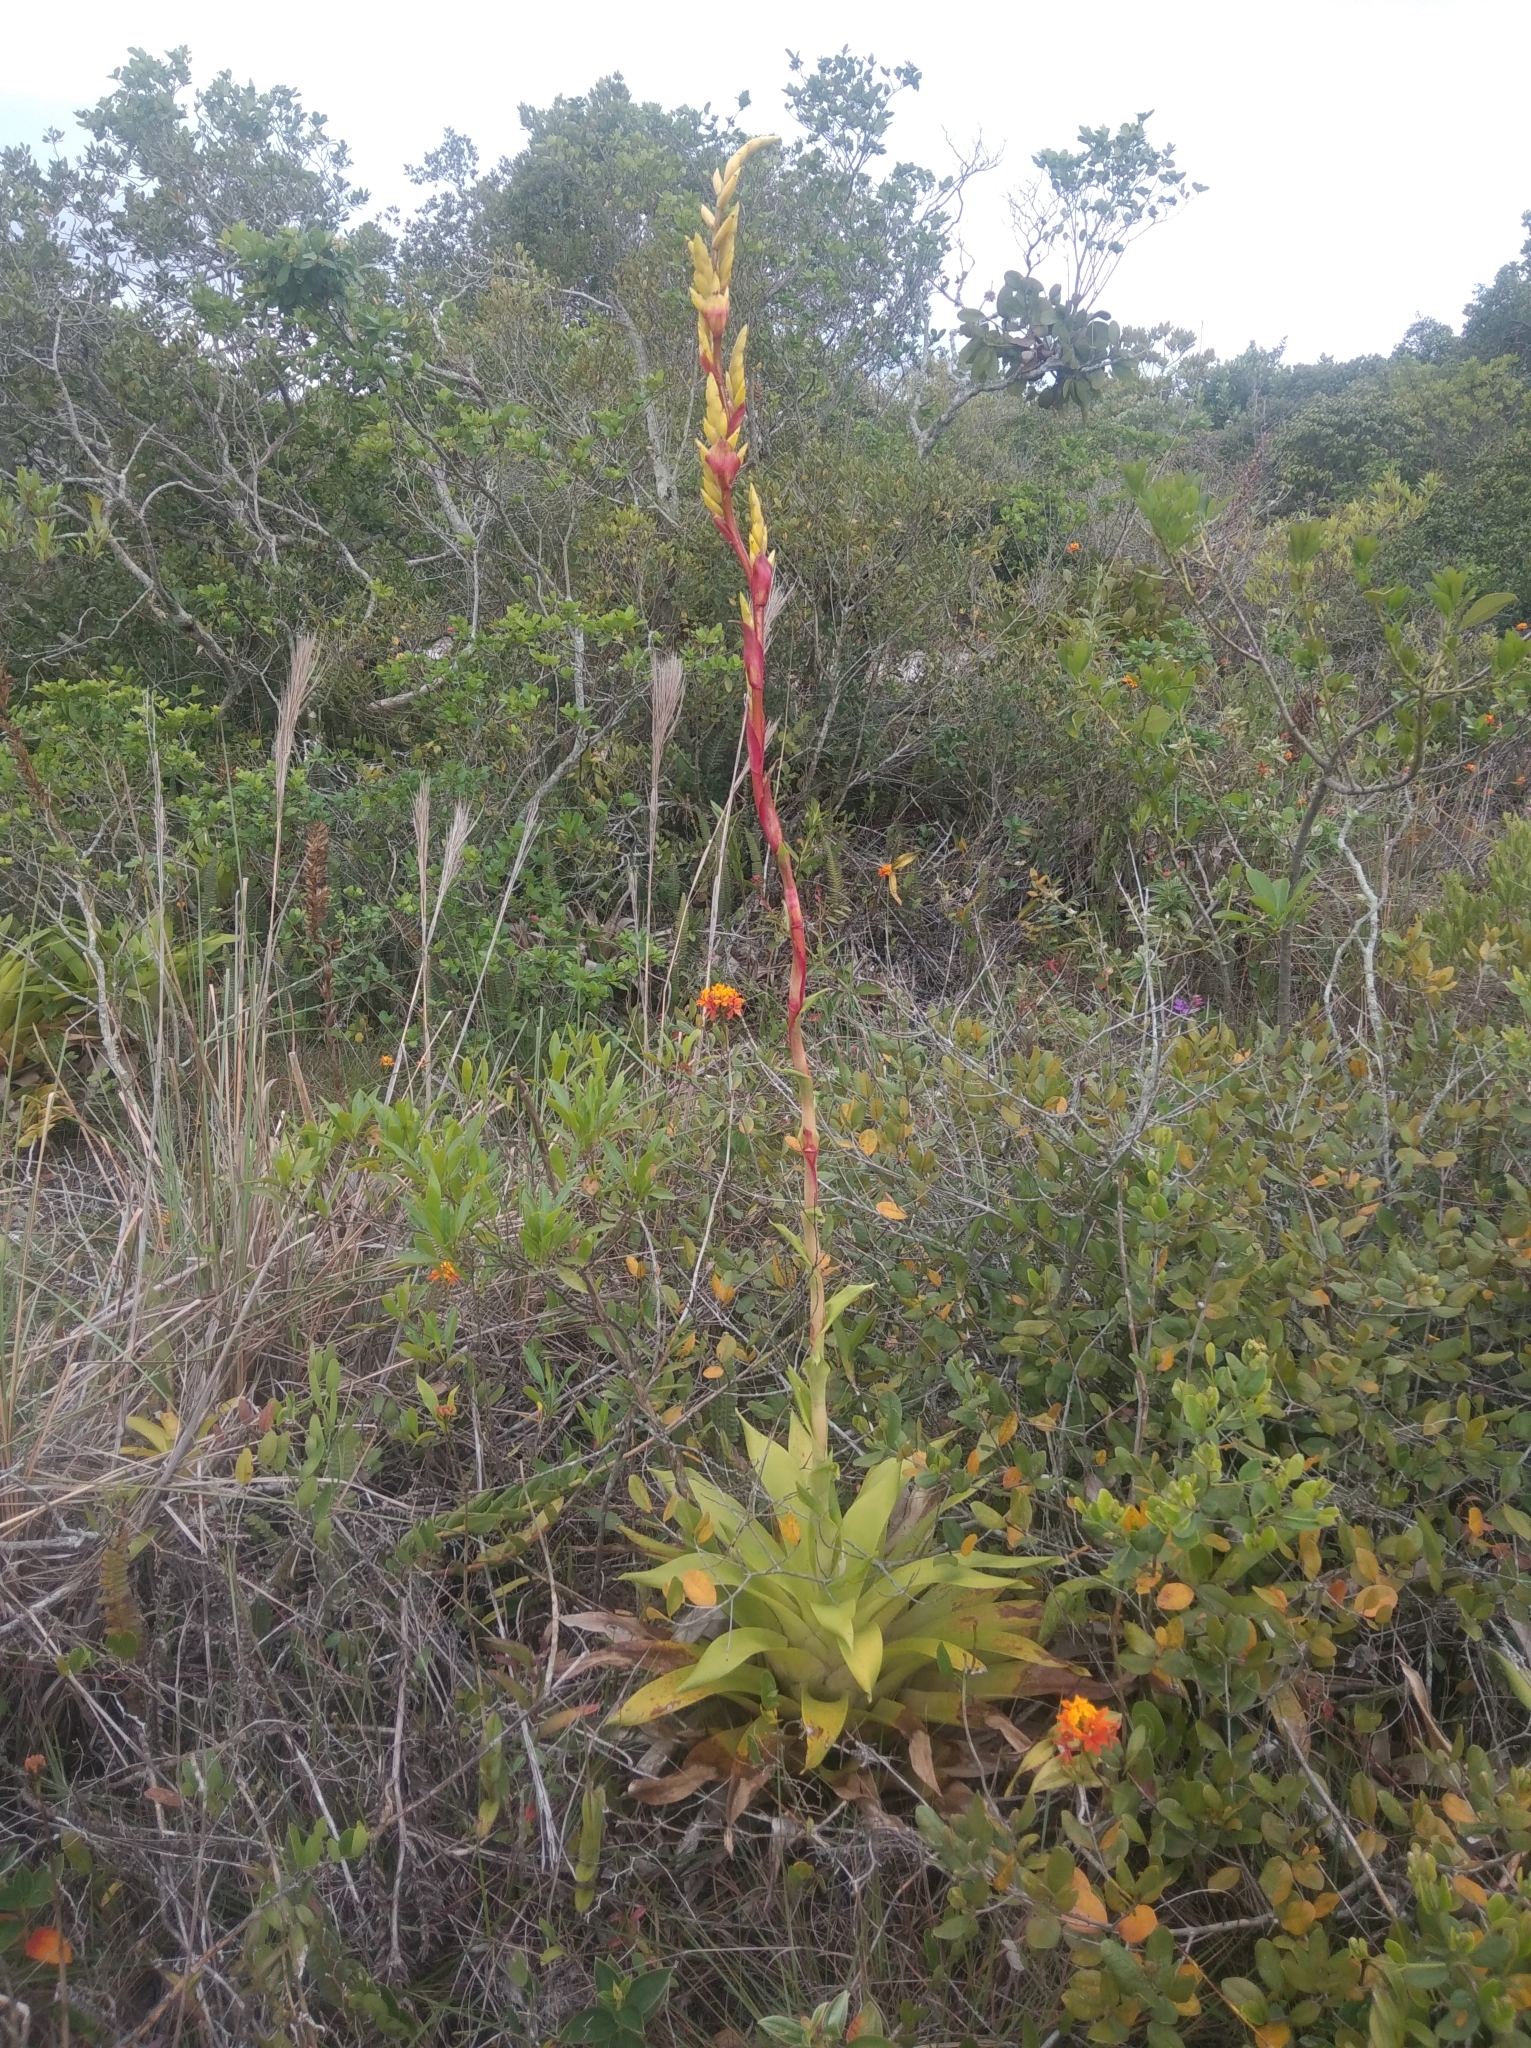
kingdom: Plantae
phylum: Tracheophyta
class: Liliopsida
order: Poales
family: Bromeliaceae
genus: Vriesea
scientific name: Vriesea friburgensis
